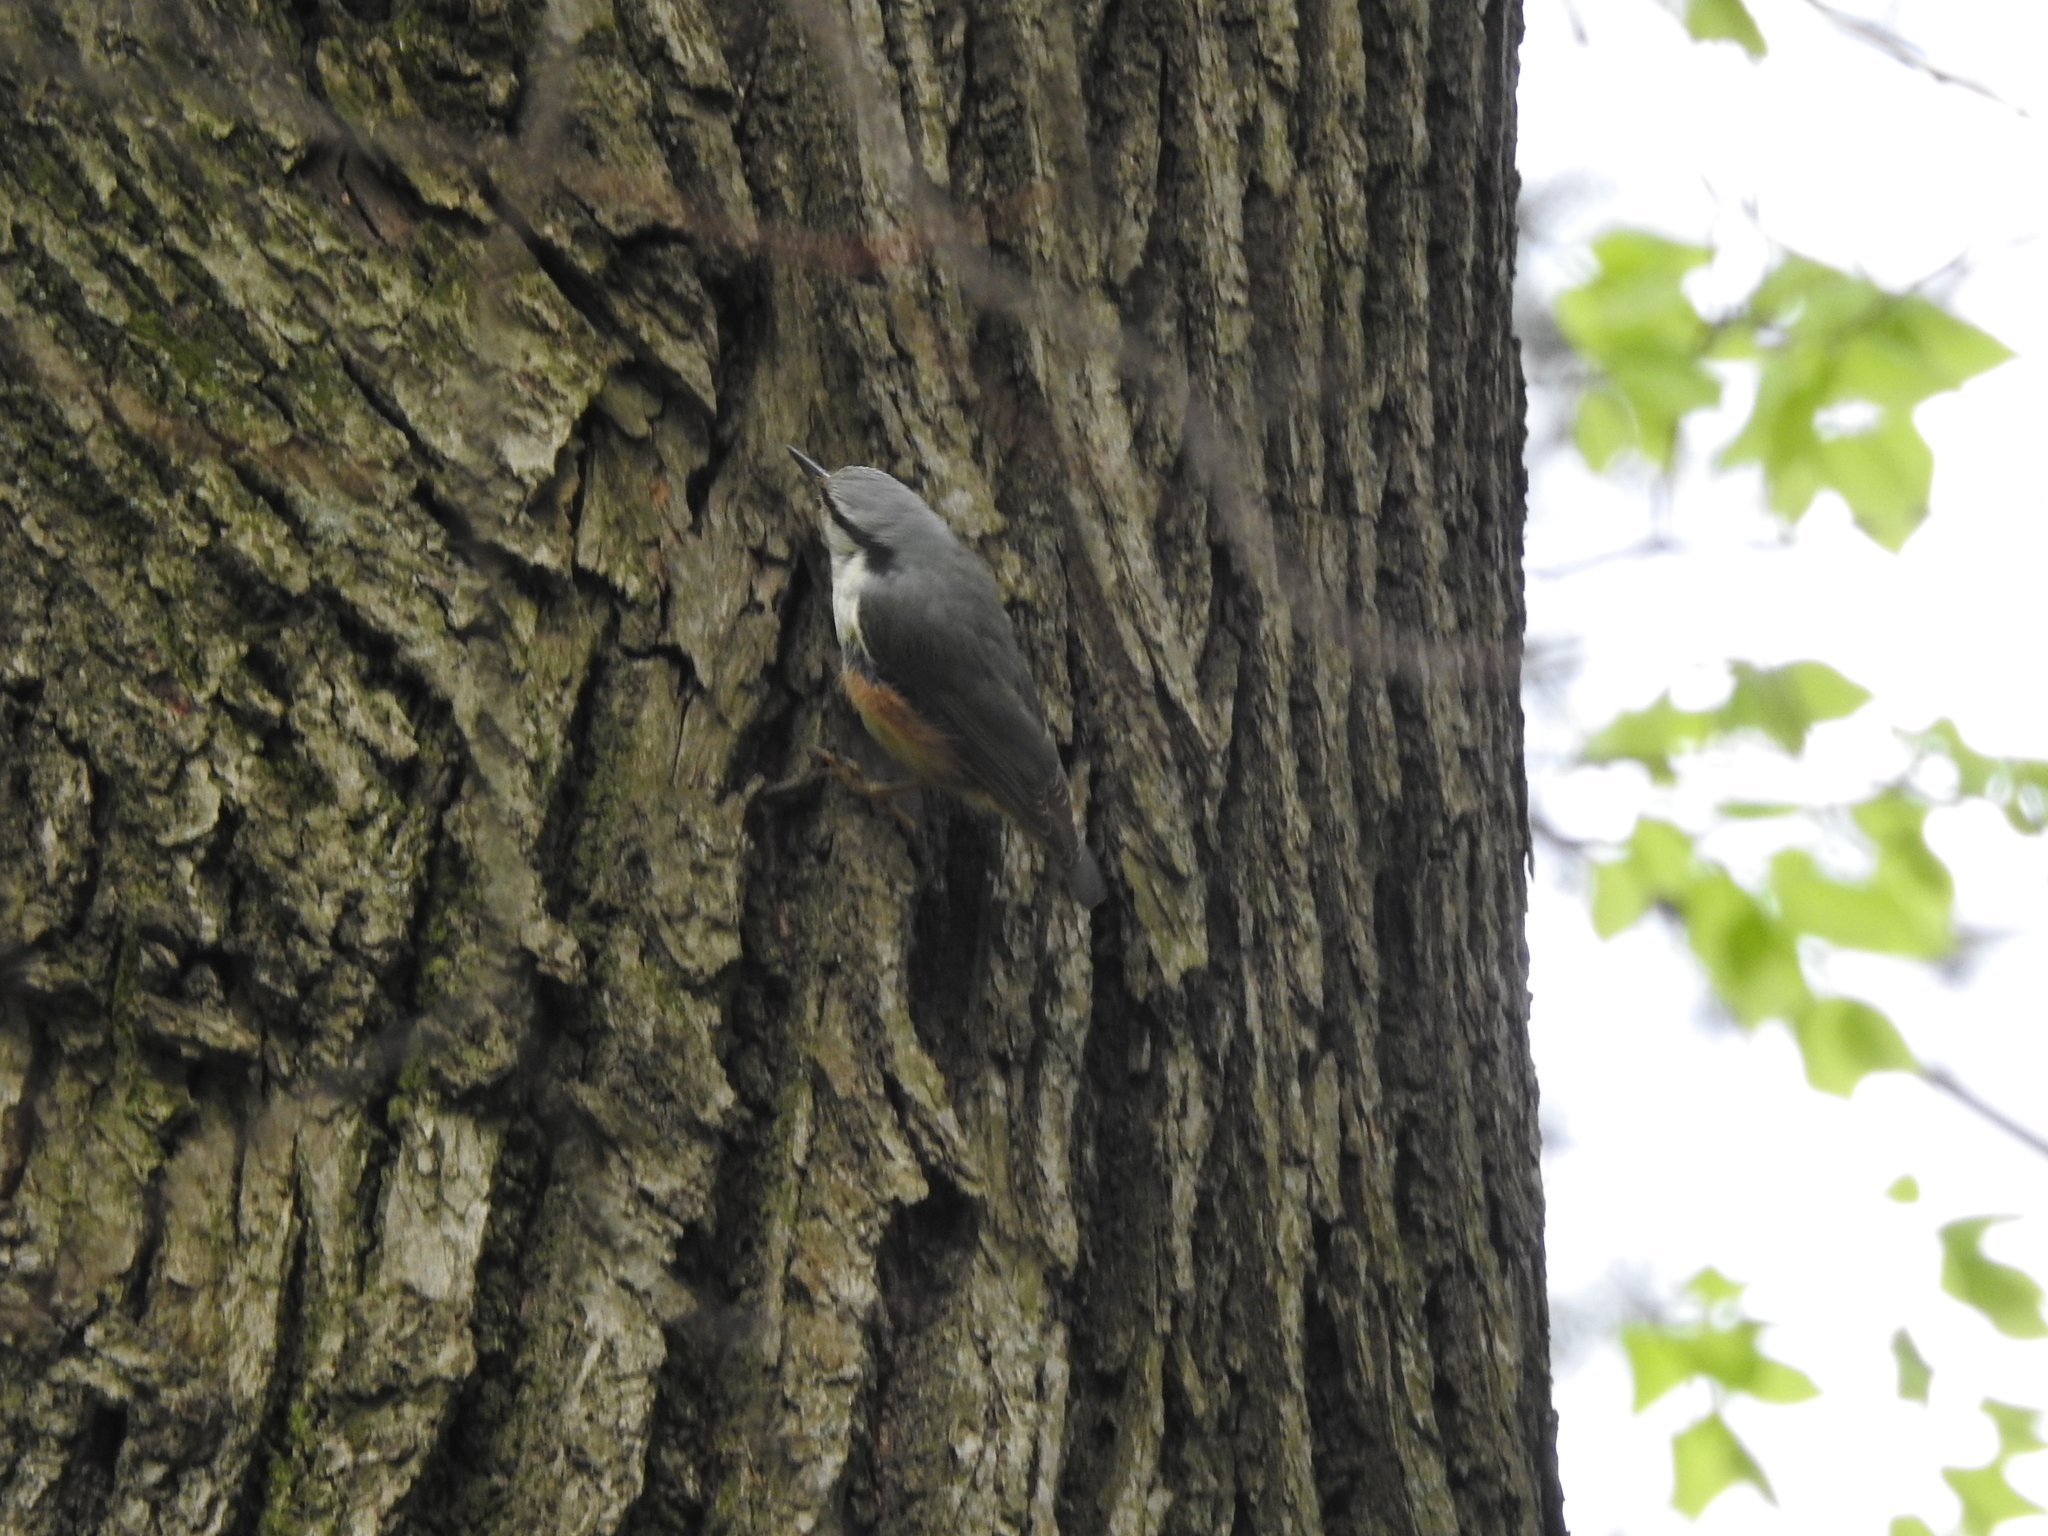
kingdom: Animalia
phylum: Chordata
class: Aves
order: Passeriformes
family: Sittidae
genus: Sitta
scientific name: Sitta europaea
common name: Eurasian nuthatch
